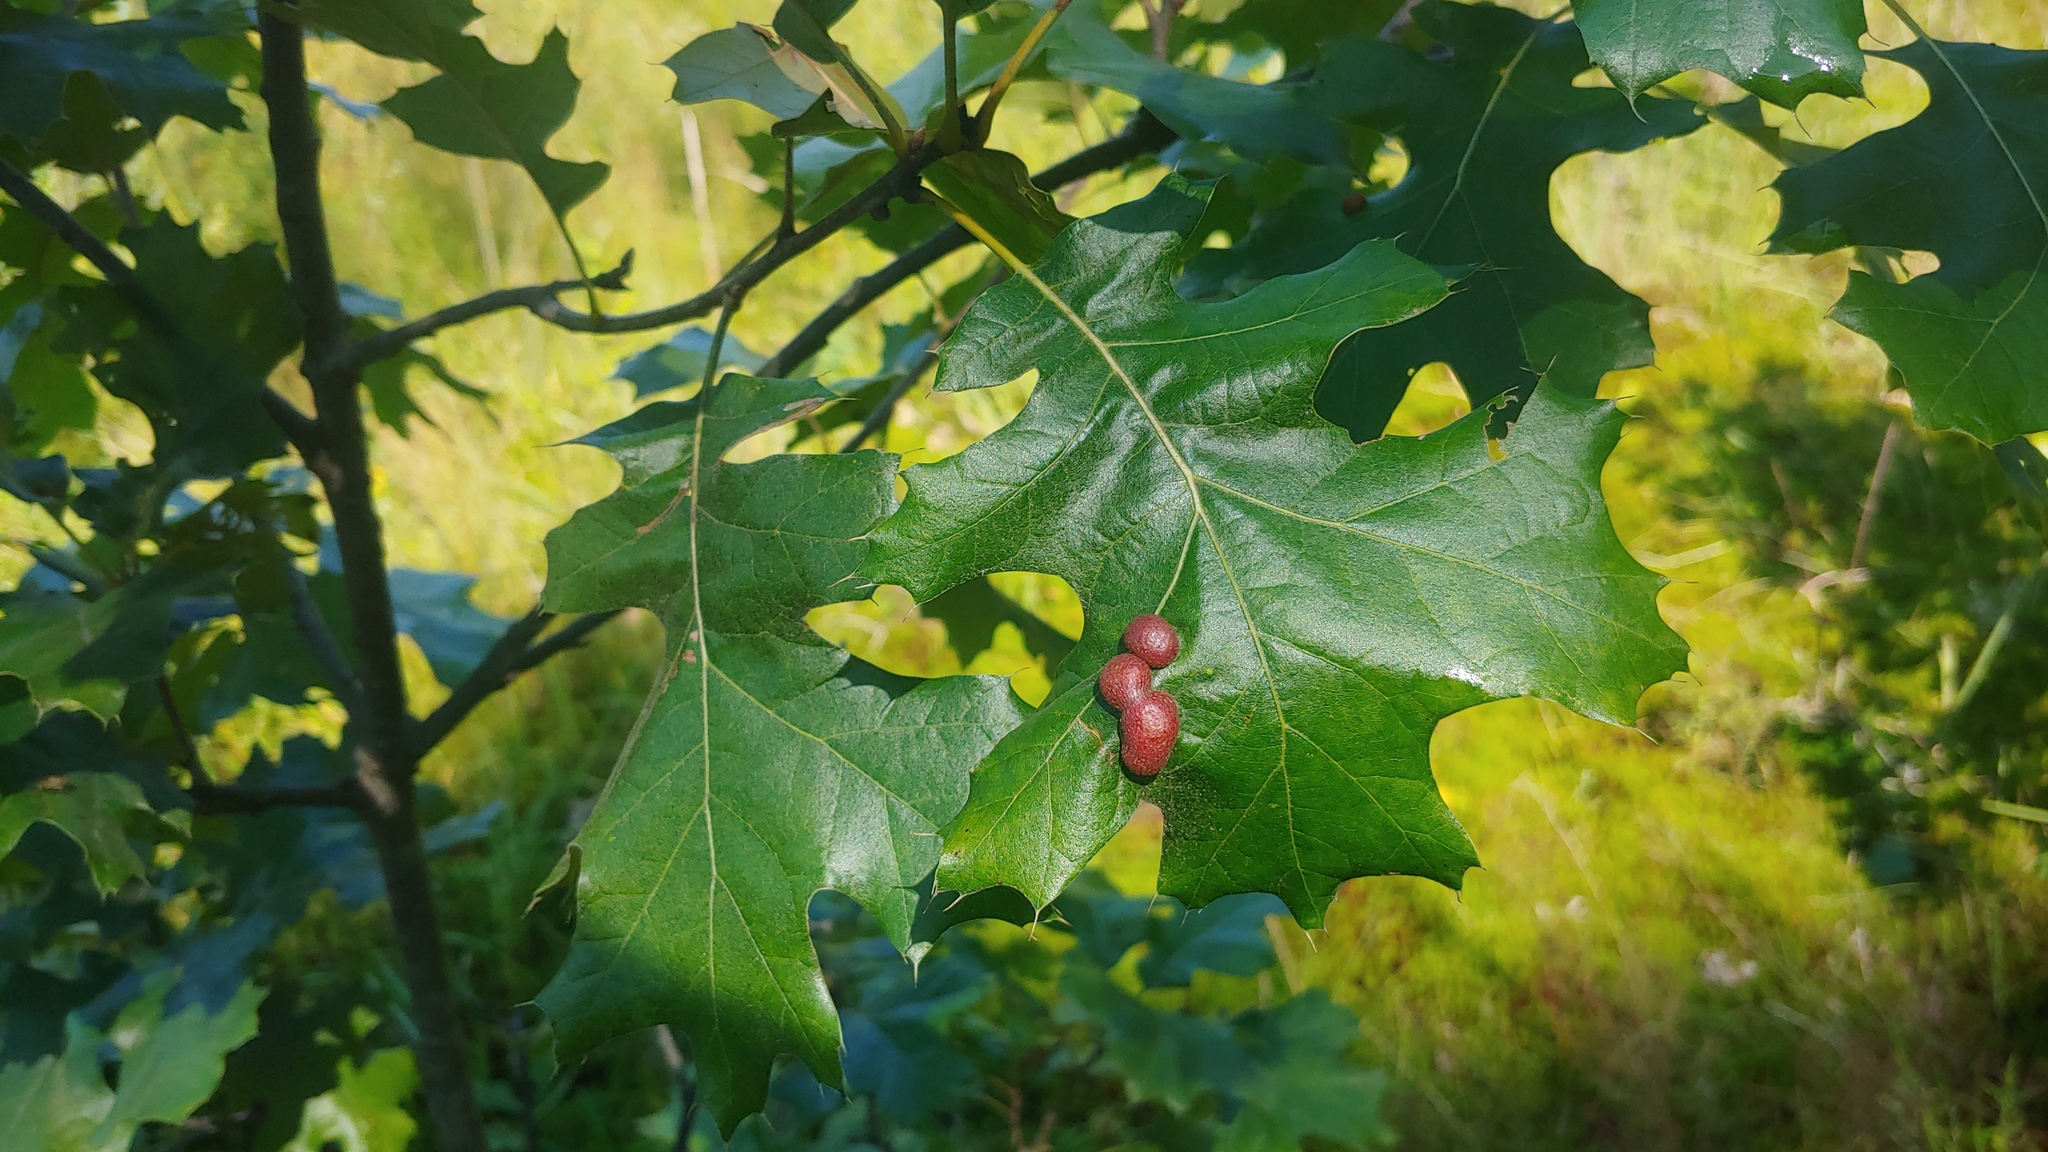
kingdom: Animalia
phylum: Arthropoda
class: Insecta
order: Diptera
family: Cecidomyiidae
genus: Polystepha
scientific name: Polystepha pilulae
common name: Oak leaf gall midge
